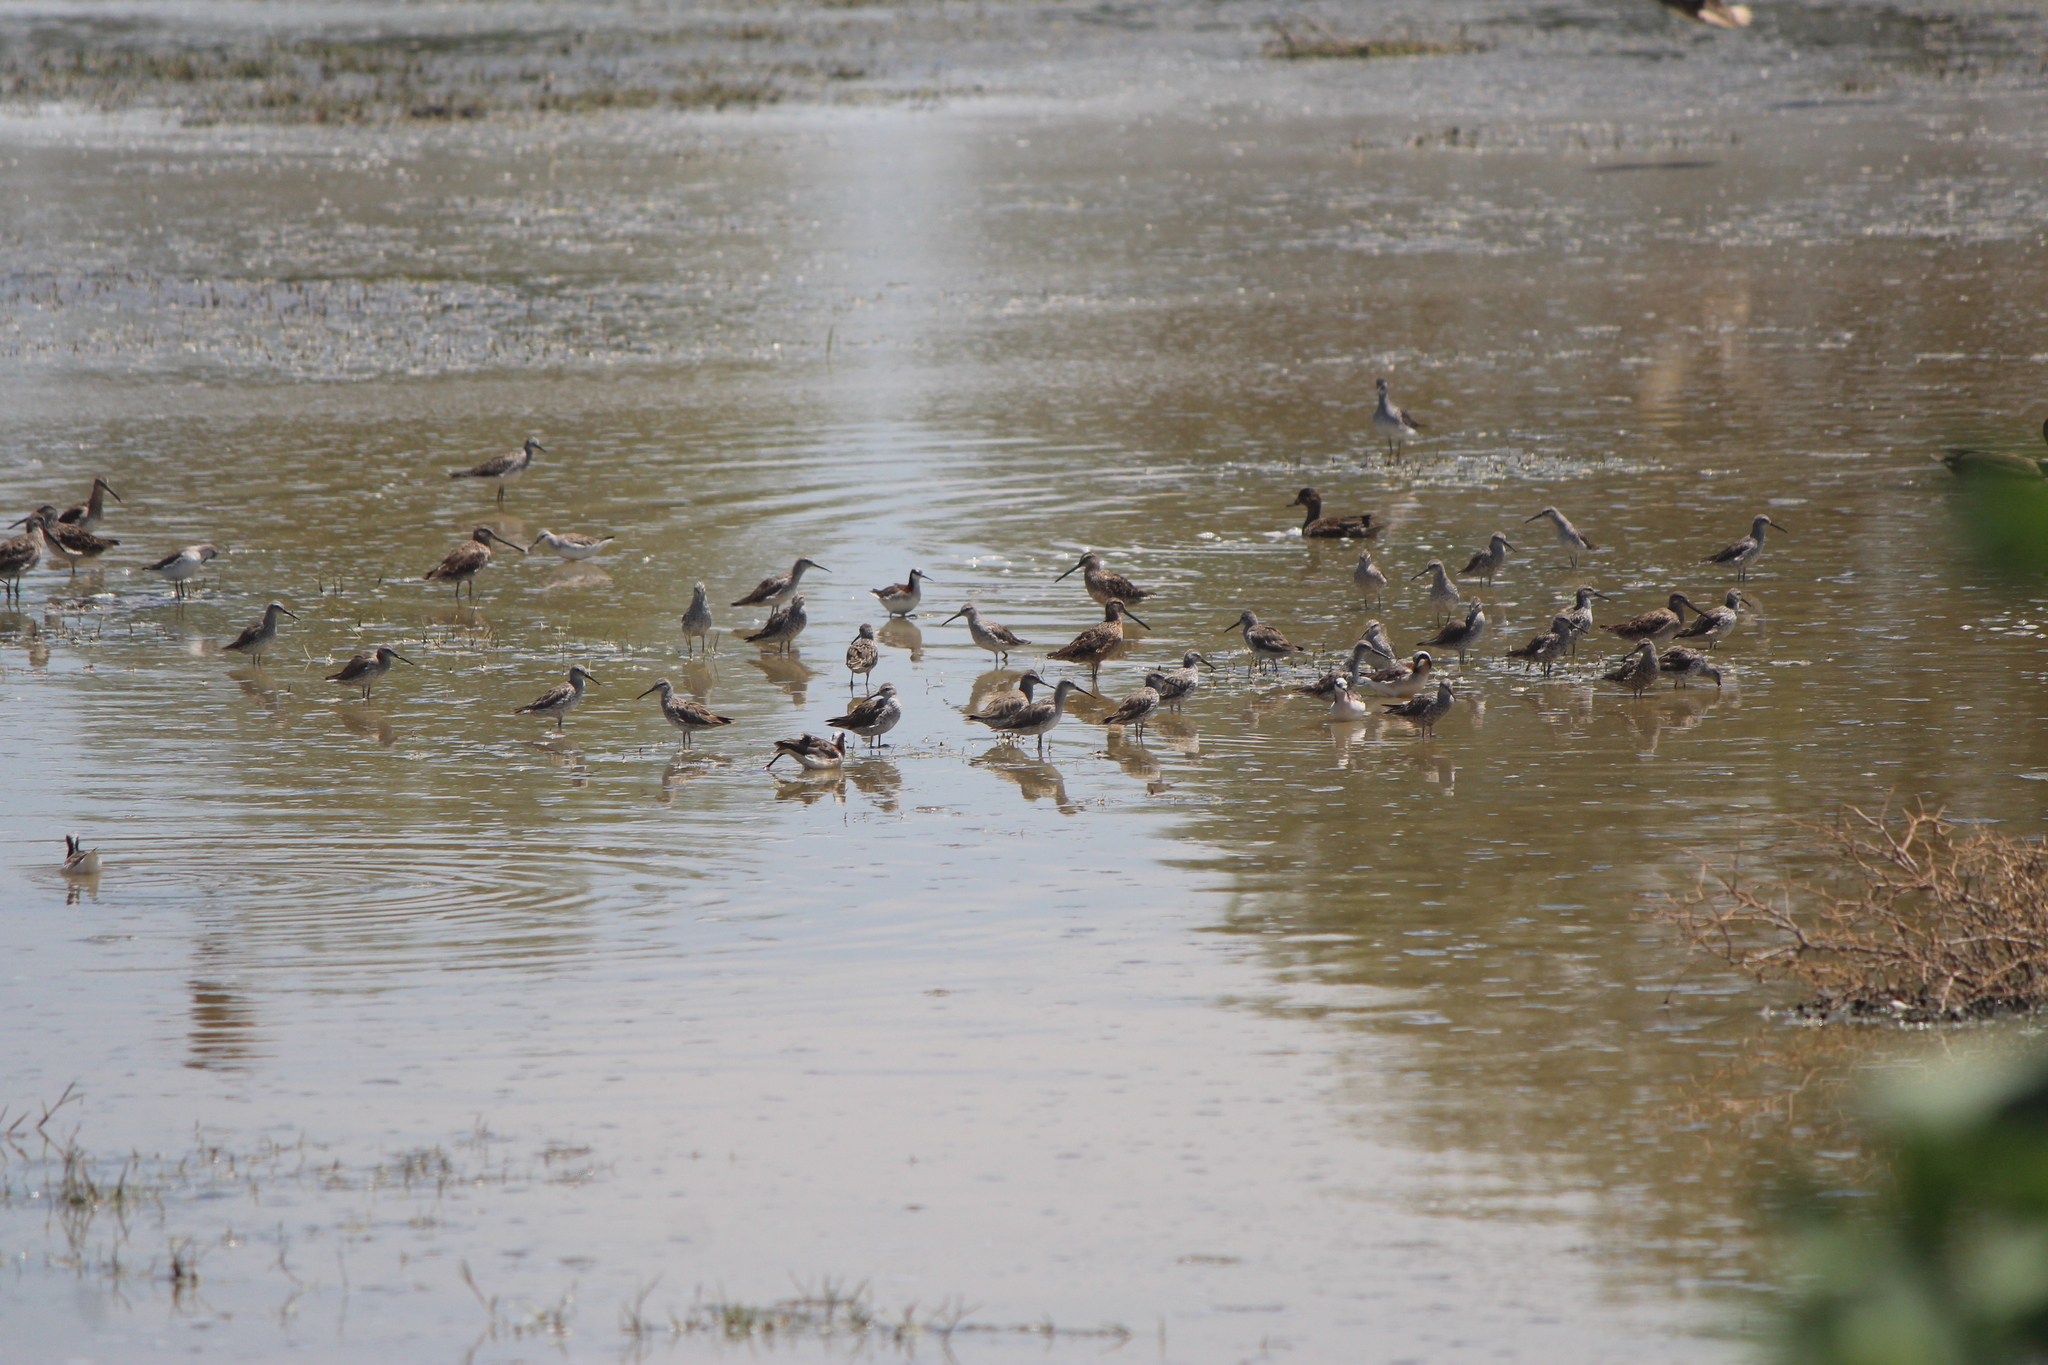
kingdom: Animalia
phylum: Chordata
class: Aves
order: Charadriiformes
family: Scolopacidae
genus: Phalaropus
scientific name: Phalaropus tricolor
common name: Wilson's phalarope
